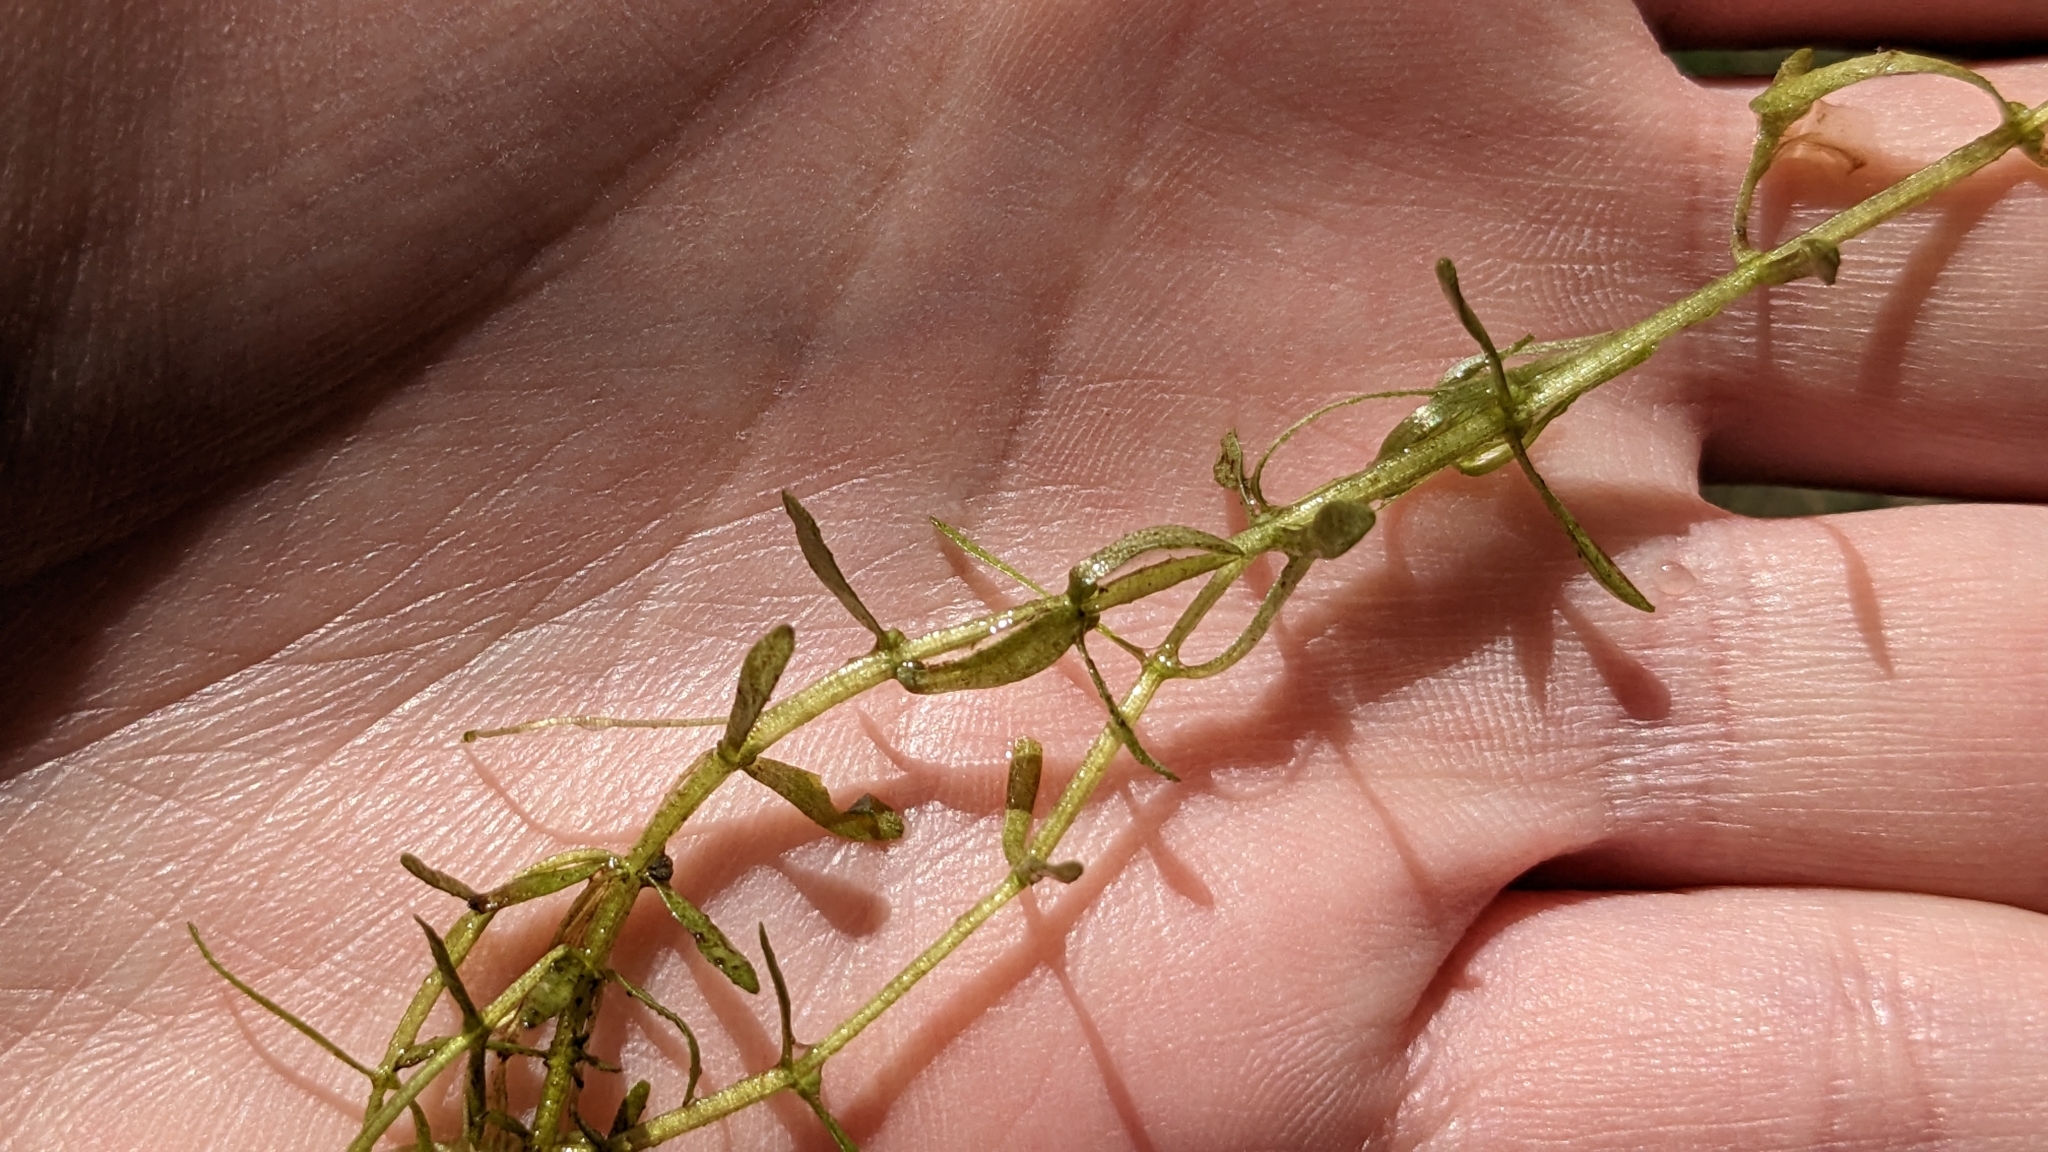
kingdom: Plantae
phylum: Tracheophyta
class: Magnoliopsida
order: Lamiales
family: Plantaginaceae
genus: Callitriche
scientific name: Callitriche heterophylla
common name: Two-headed water-starwort
